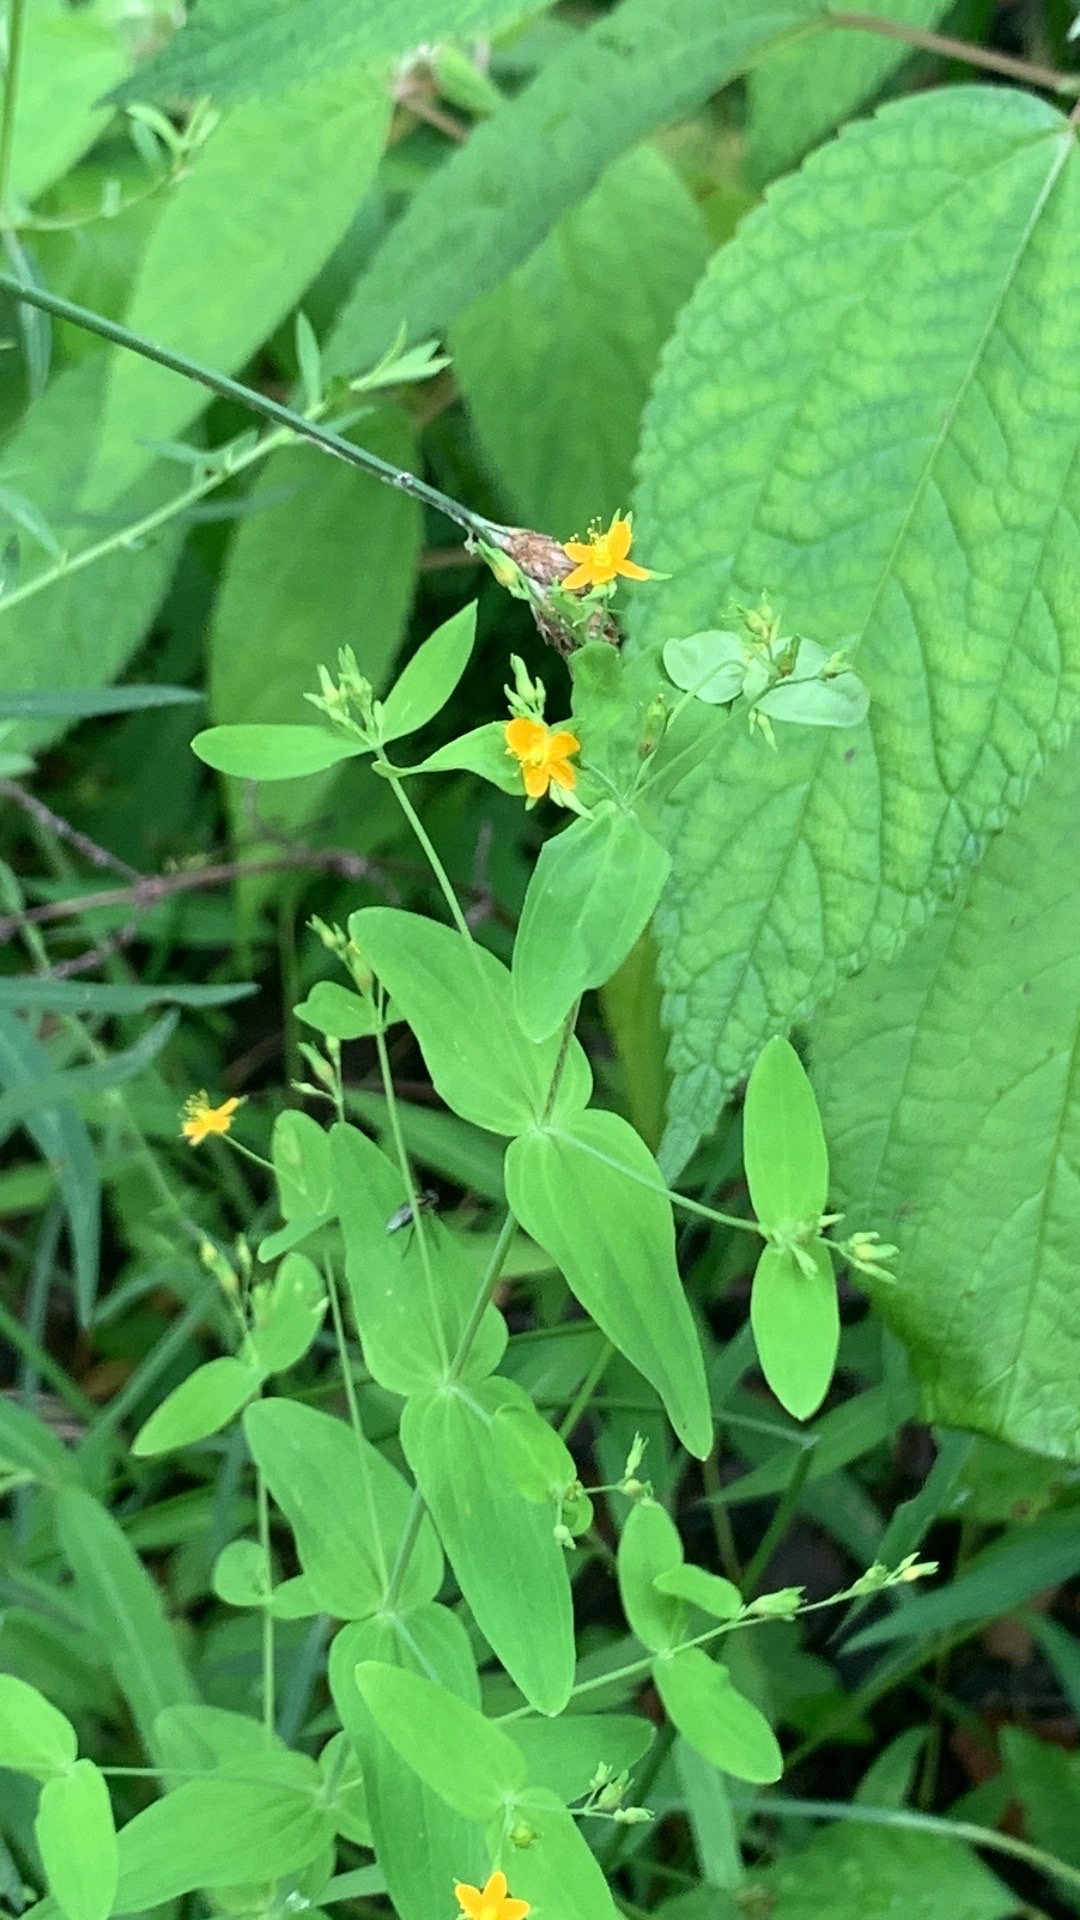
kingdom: Plantae
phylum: Tracheophyta
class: Magnoliopsida
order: Malpighiales
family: Hypericaceae
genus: Hypericum
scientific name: Hypericum mutilum
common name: Dwarf st. john's-wort
